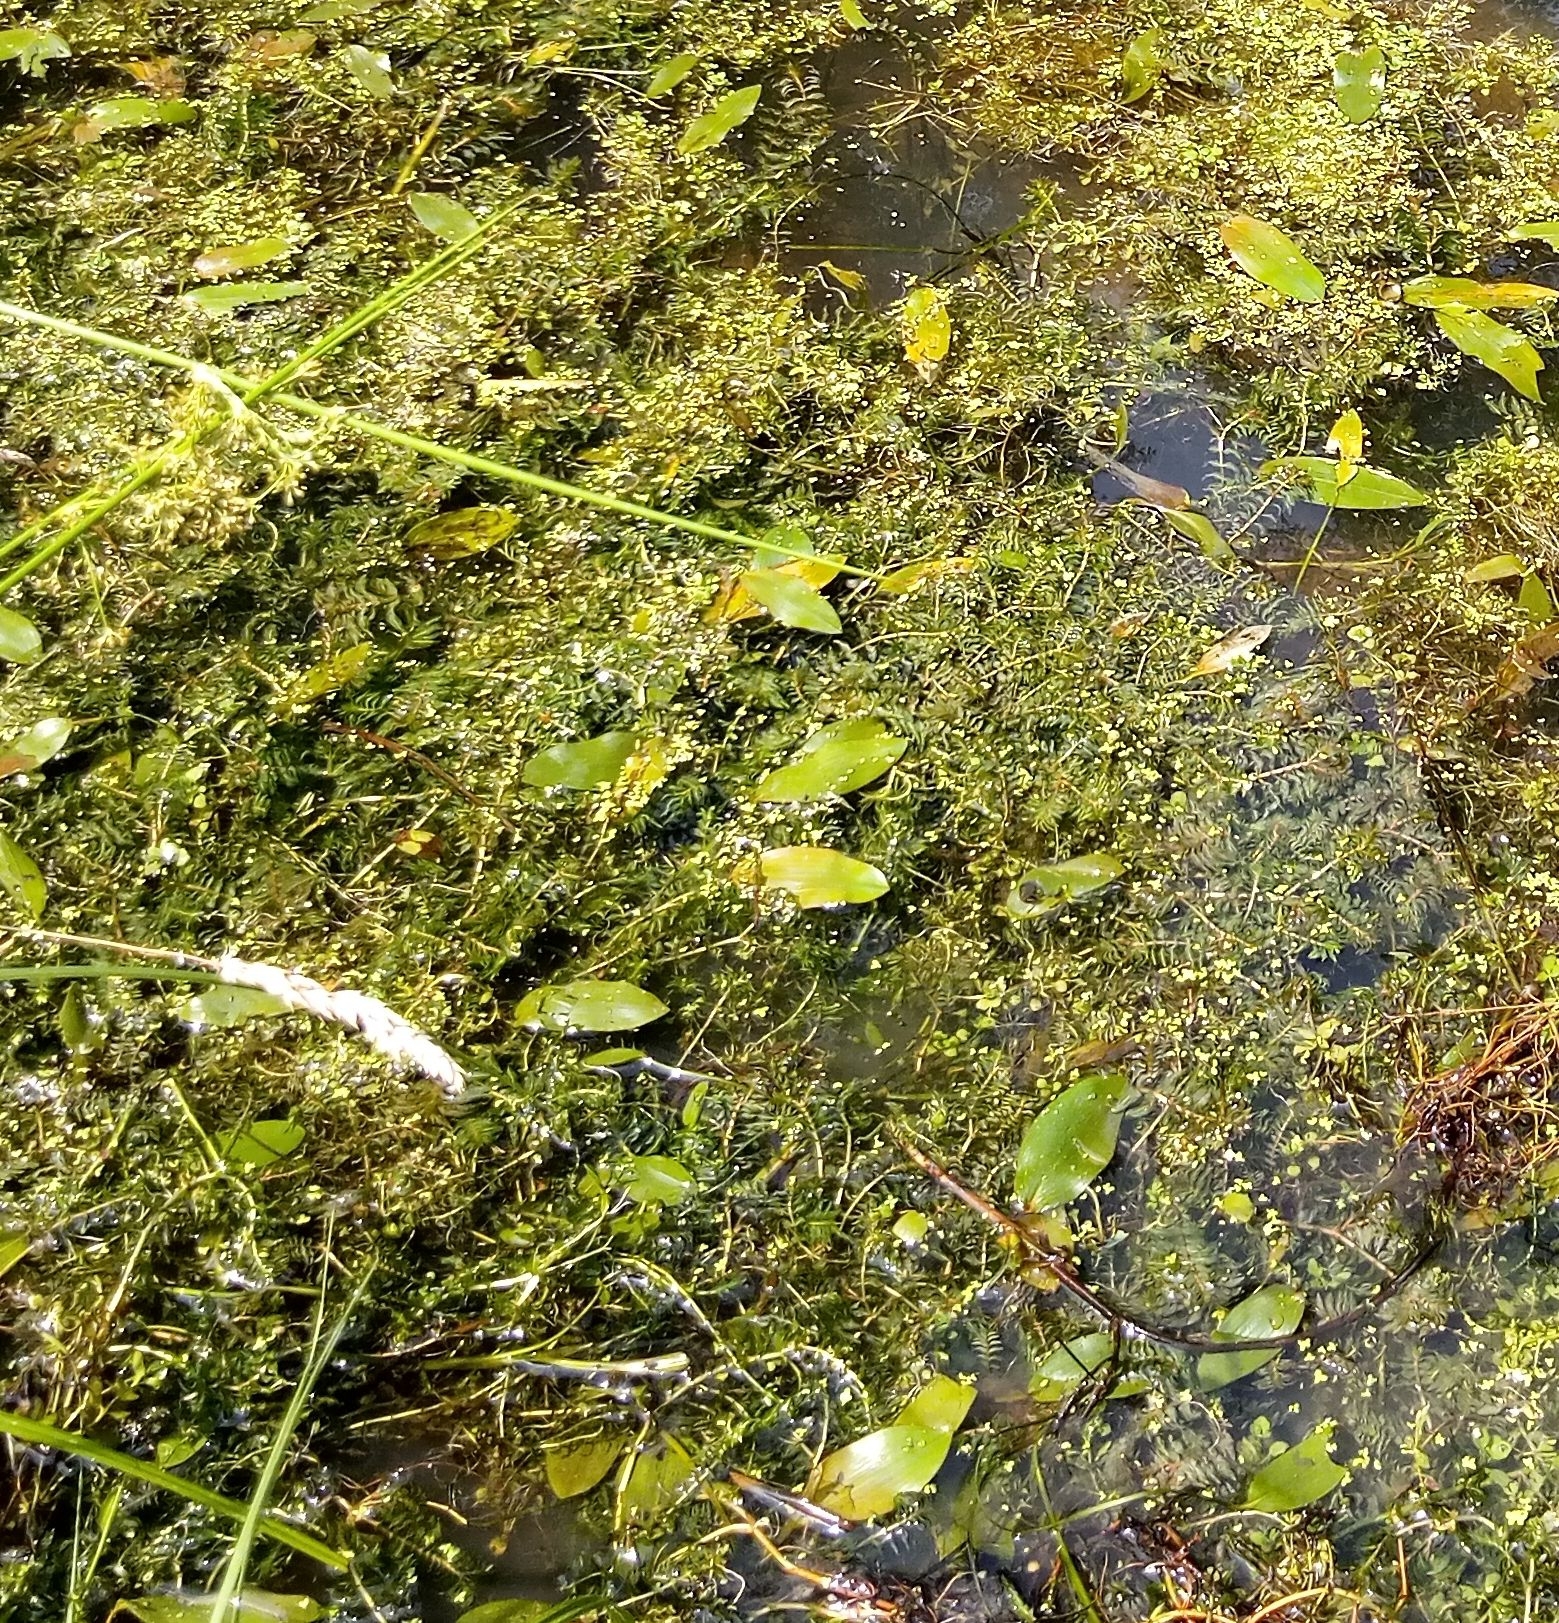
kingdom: Plantae
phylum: Tracheophyta
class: Liliopsida
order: Alismatales
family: Potamogetonaceae
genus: Potamogeton
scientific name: Potamogeton natans
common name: Broad-leaved pondweed
